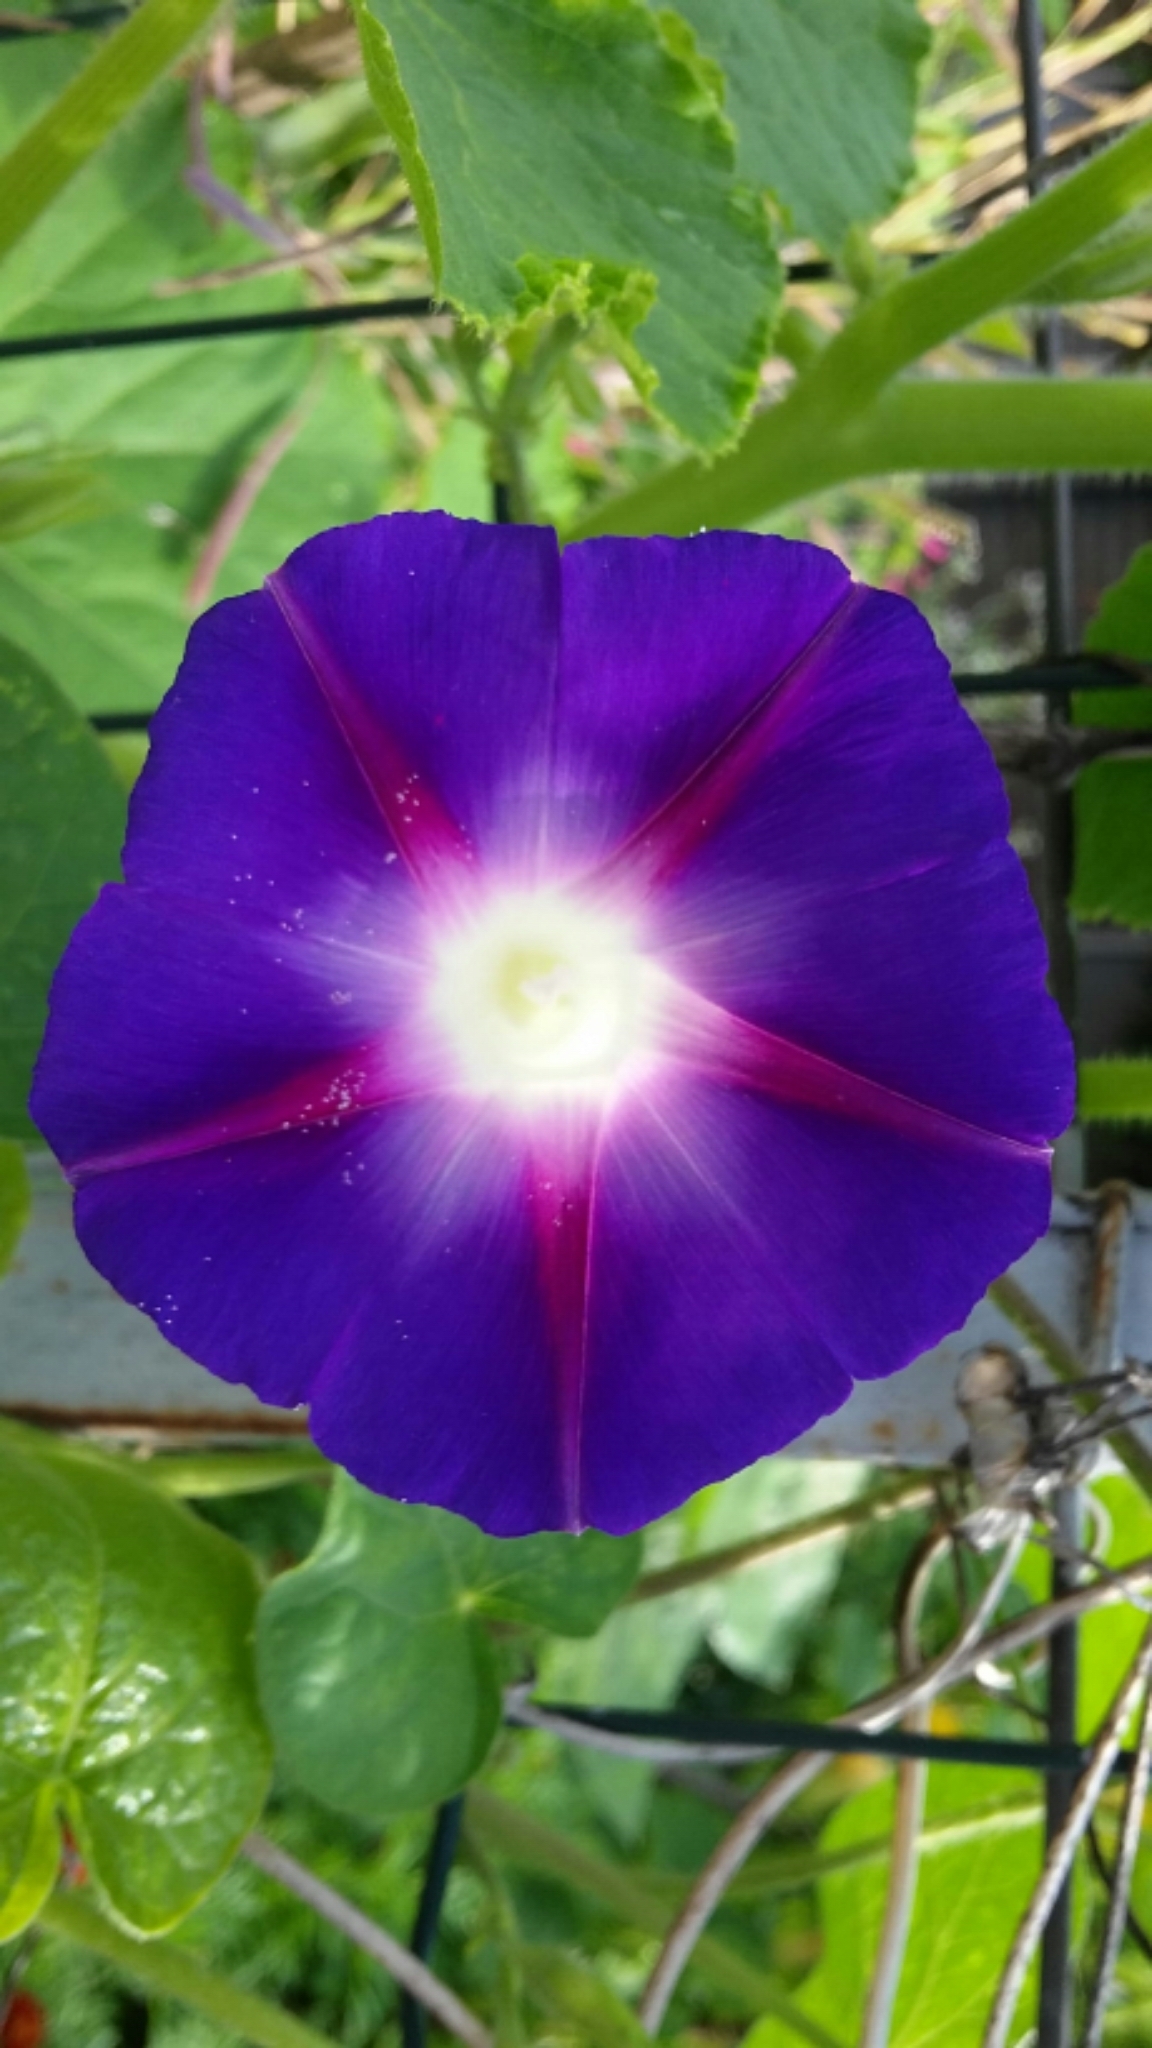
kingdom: Plantae
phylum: Tracheophyta
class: Magnoliopsida
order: Solanales
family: Convolvulaceae
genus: Ipomoea
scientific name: Ipomoea purpurea
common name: Common morning-glory
